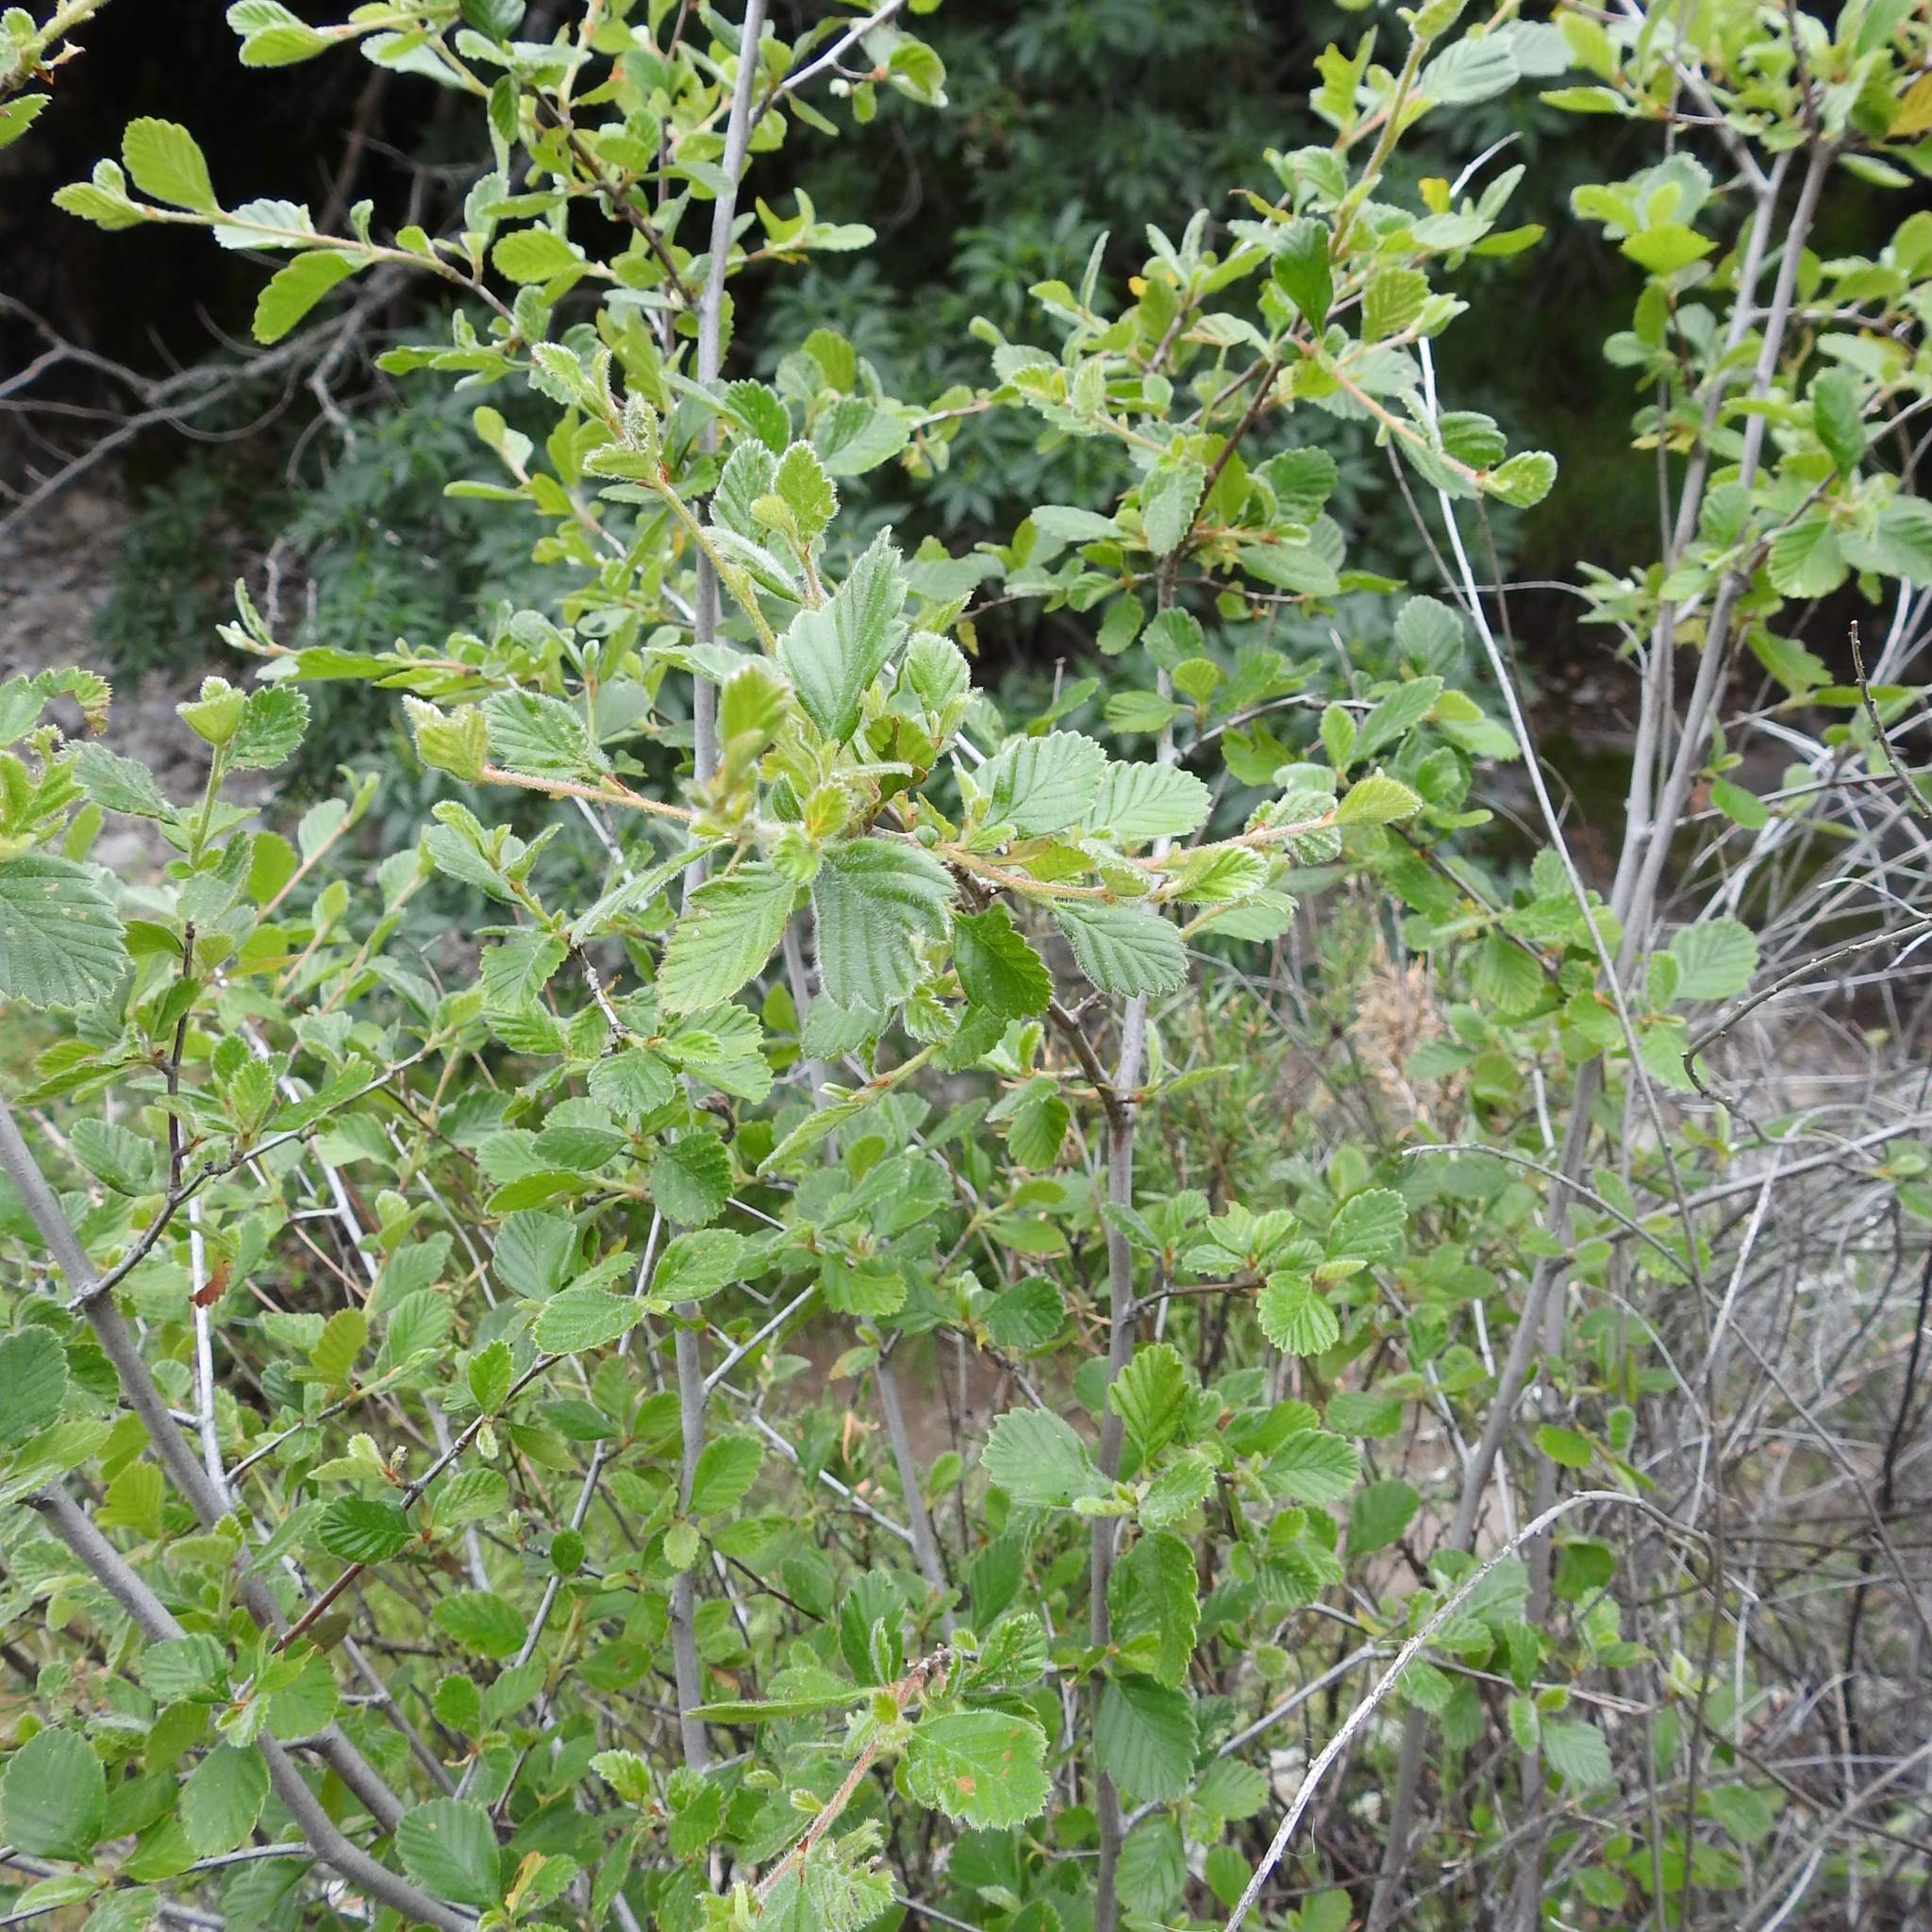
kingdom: Plantae
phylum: Tracheophyta
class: Magnoliopsida
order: Rosales
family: Rosaceae
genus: Cercocarpus
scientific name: Cercocarpus betuloides
